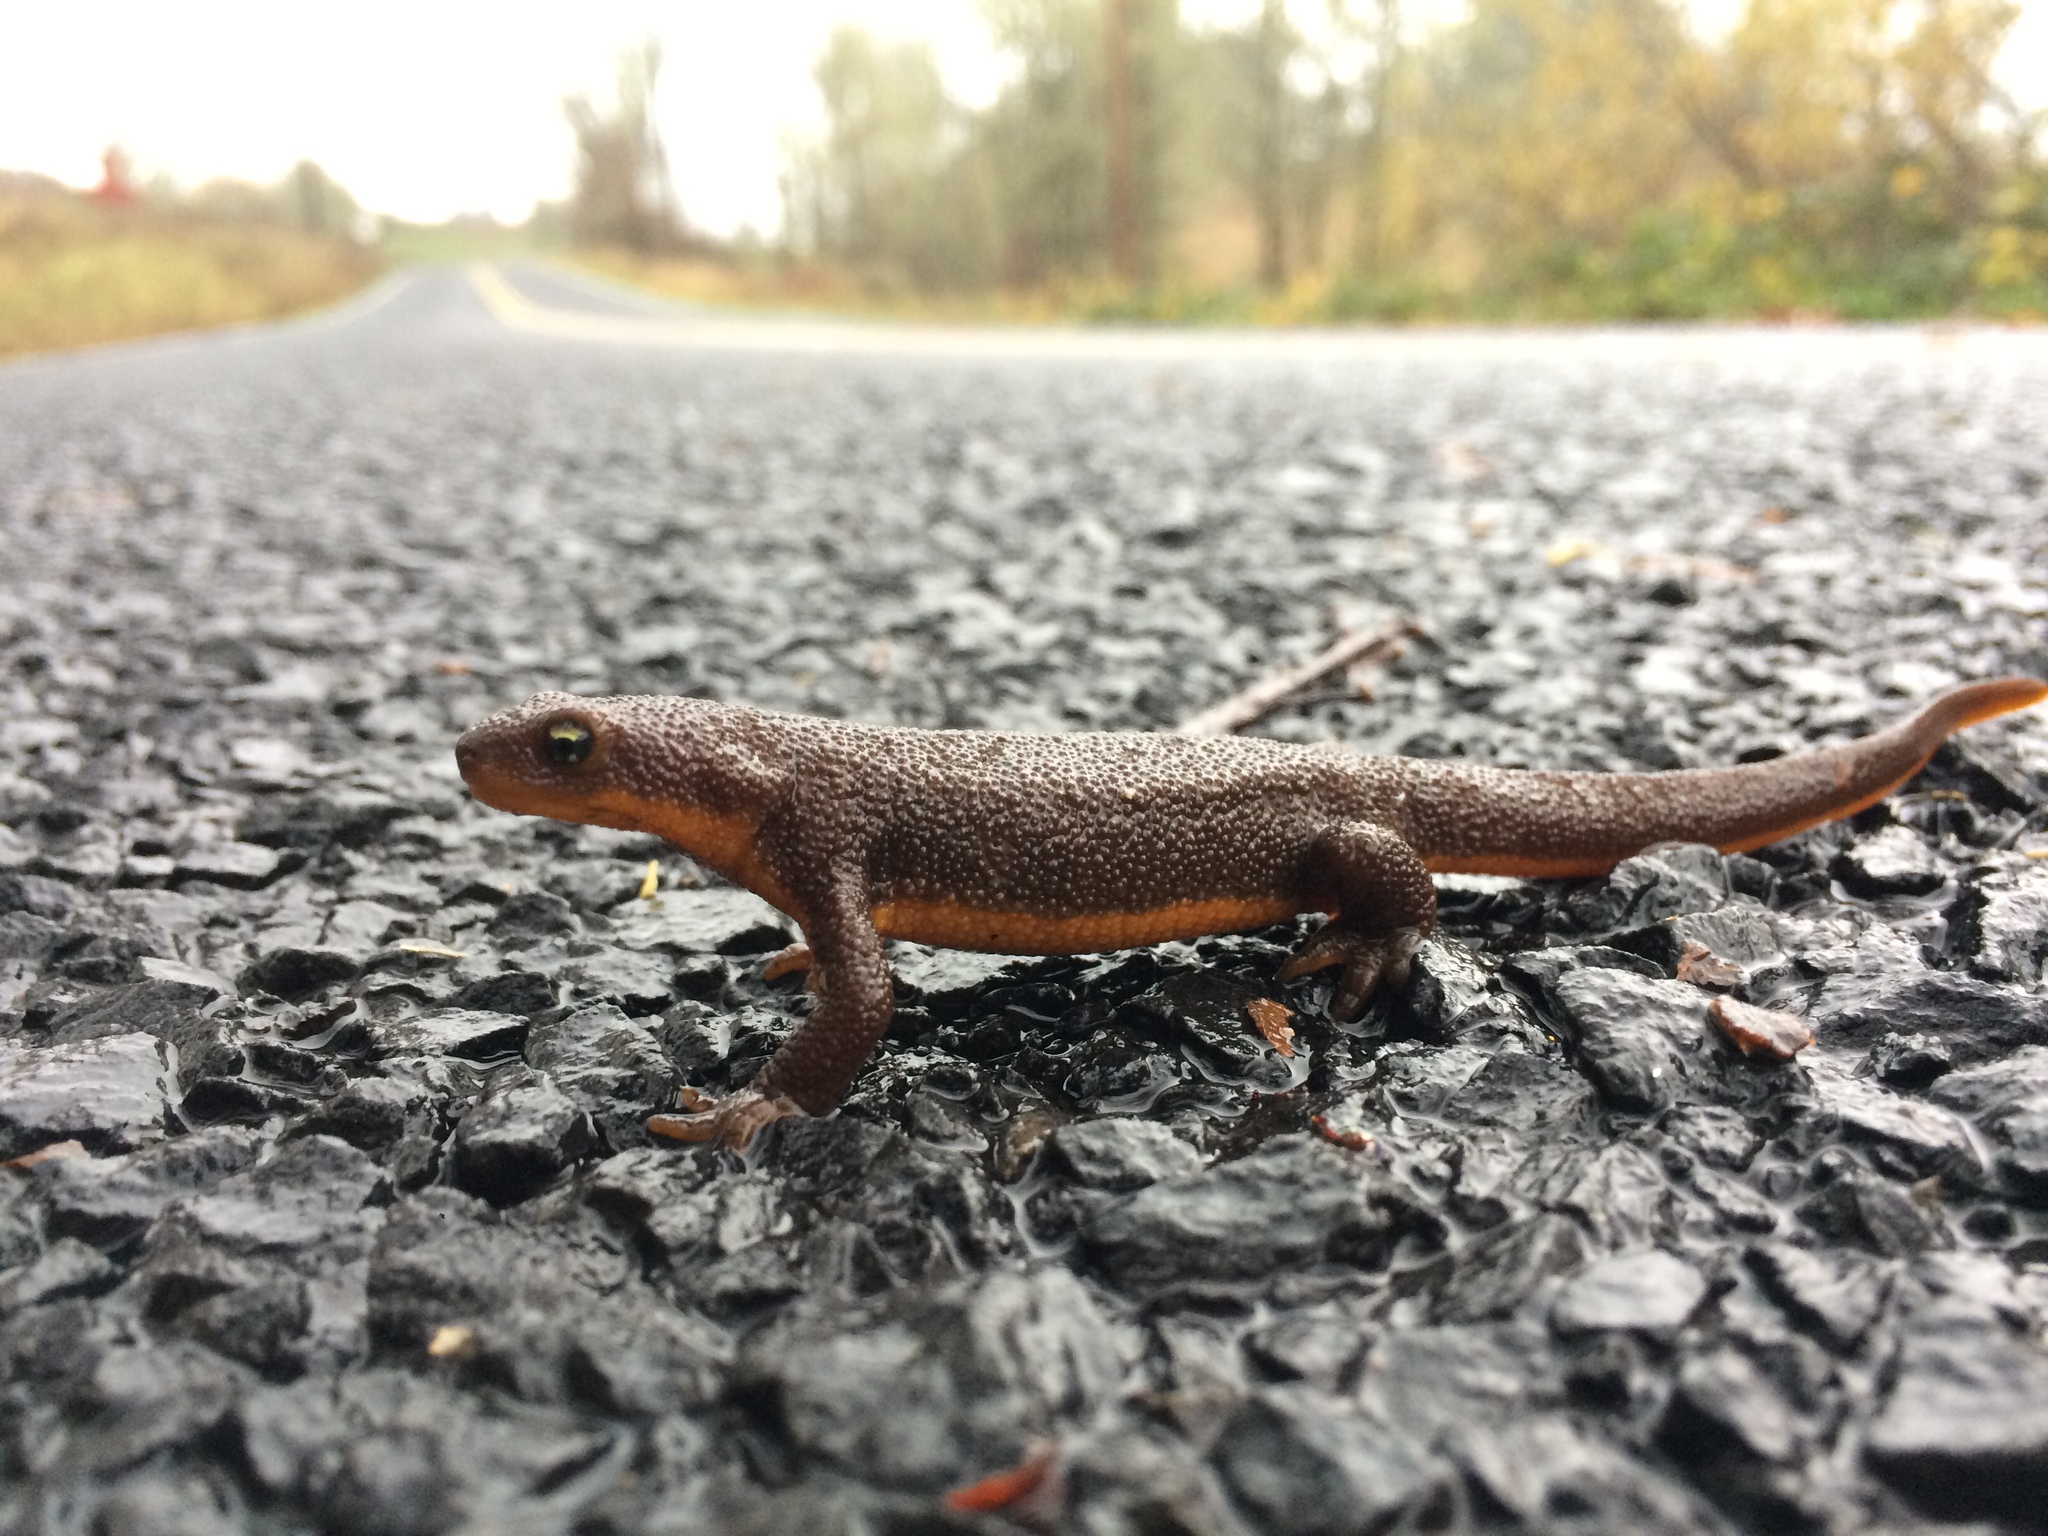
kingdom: Animalia
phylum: Chordata
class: Amphibia
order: Caudata
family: Salamandridae
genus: Taricha
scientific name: Taricha granulosa
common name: Roughskin newt
